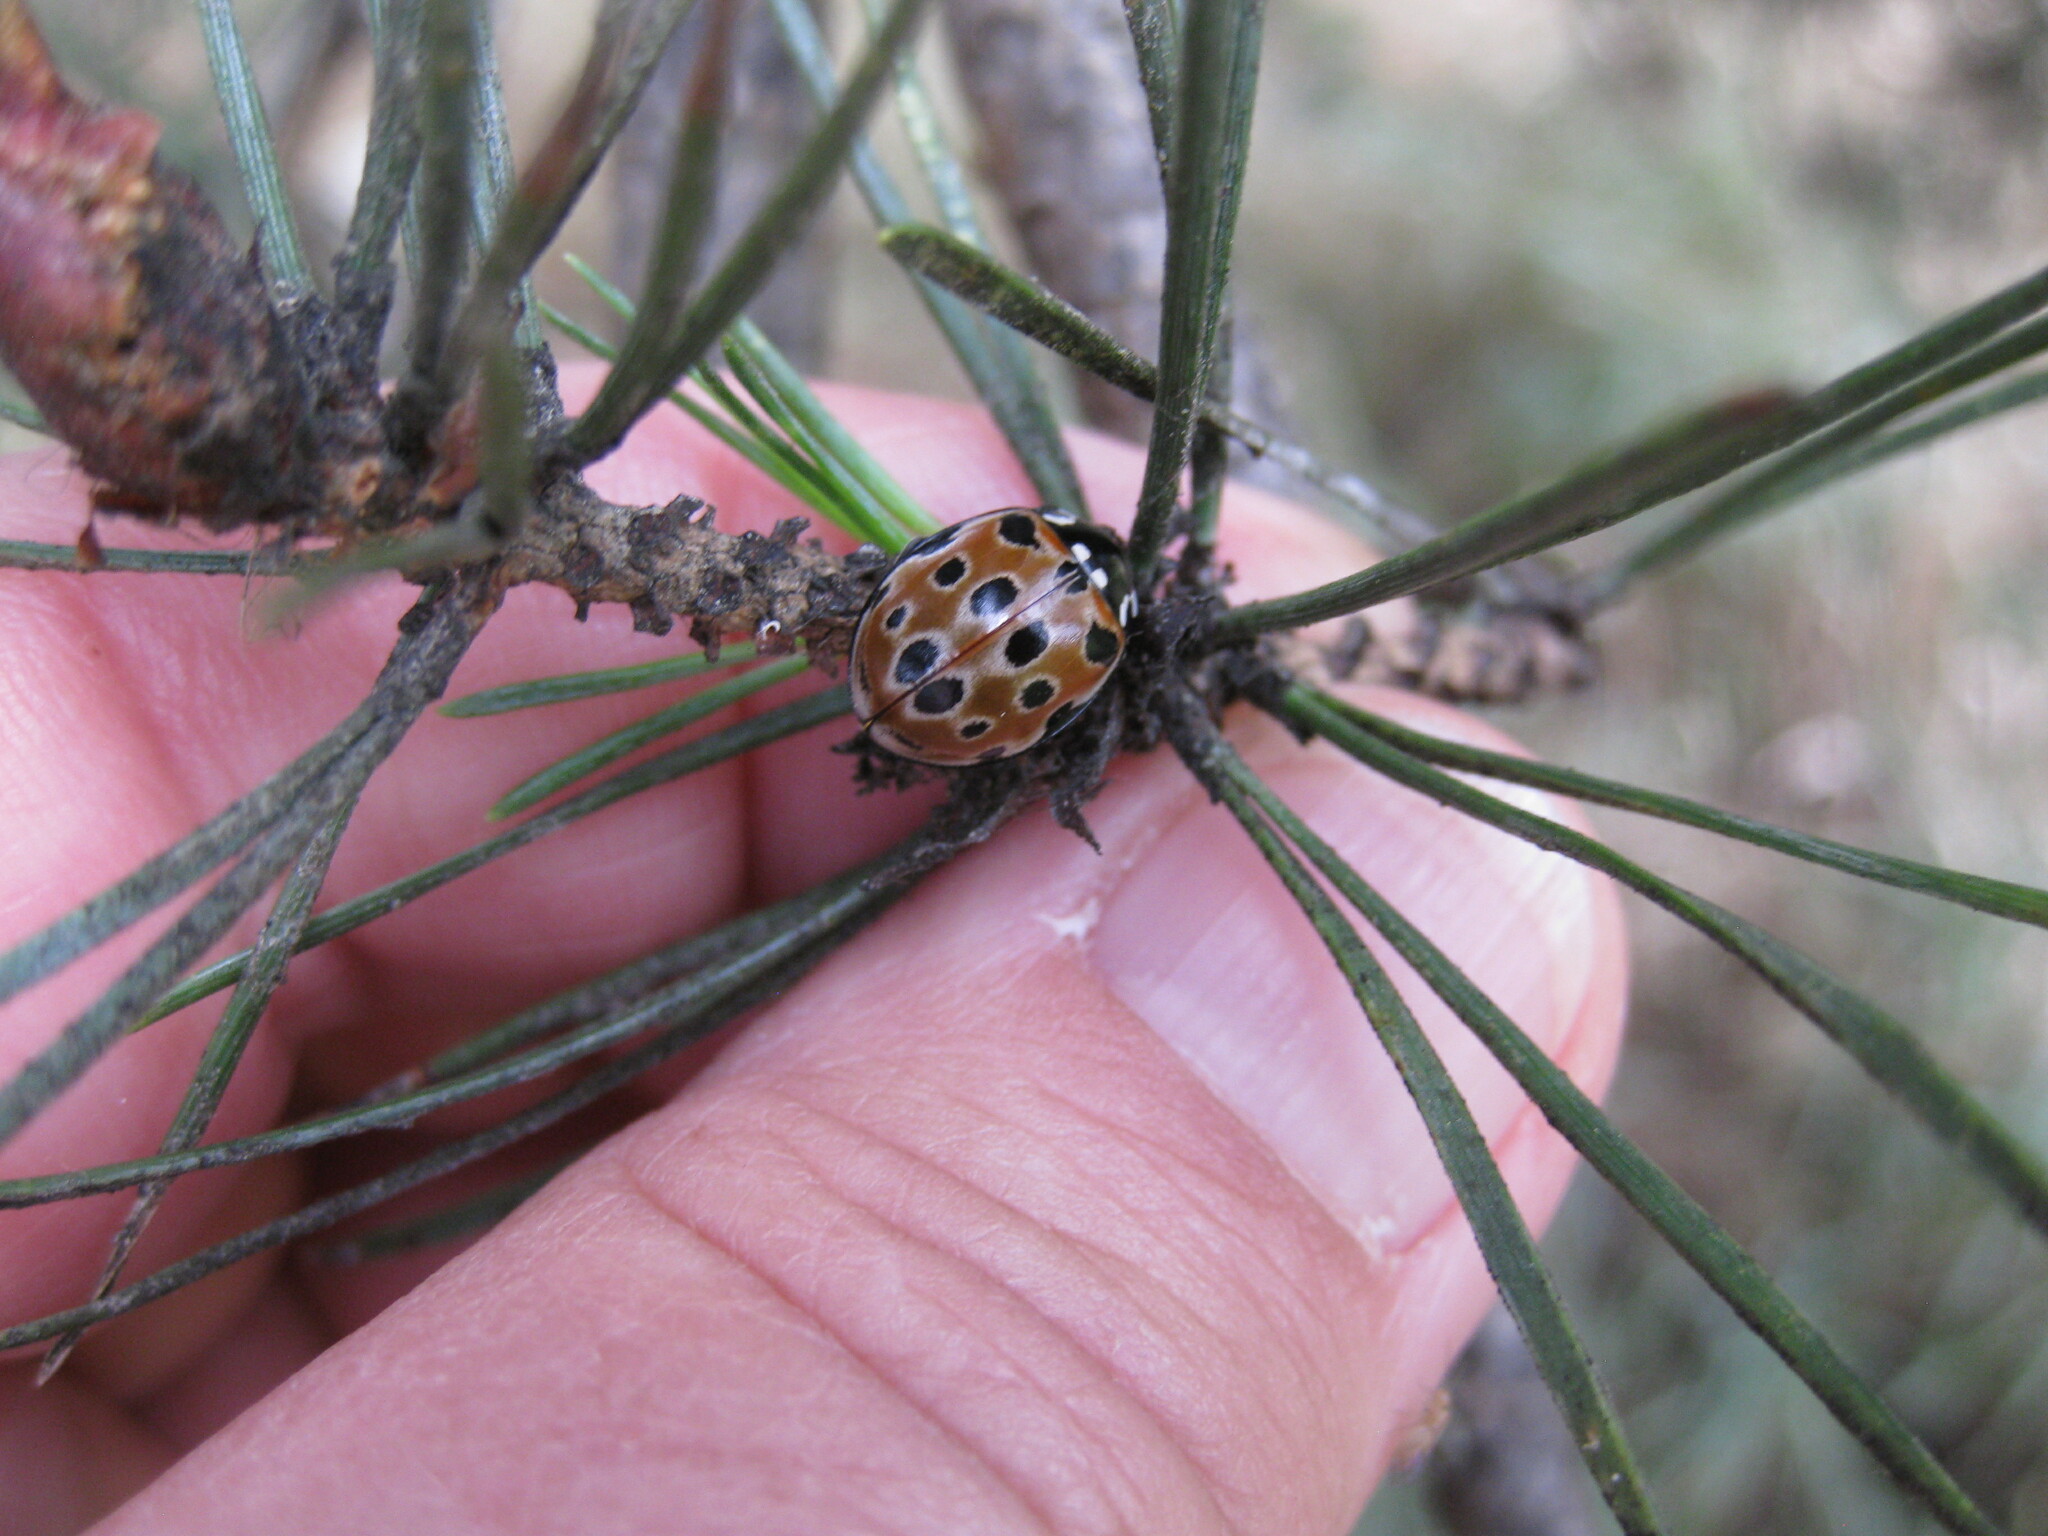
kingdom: Animalia
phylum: Arthropoda
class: Insecta
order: Coleoptera
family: Coccinellidae
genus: Anatis
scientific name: Anatis ocellata
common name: Eyed ladybird
